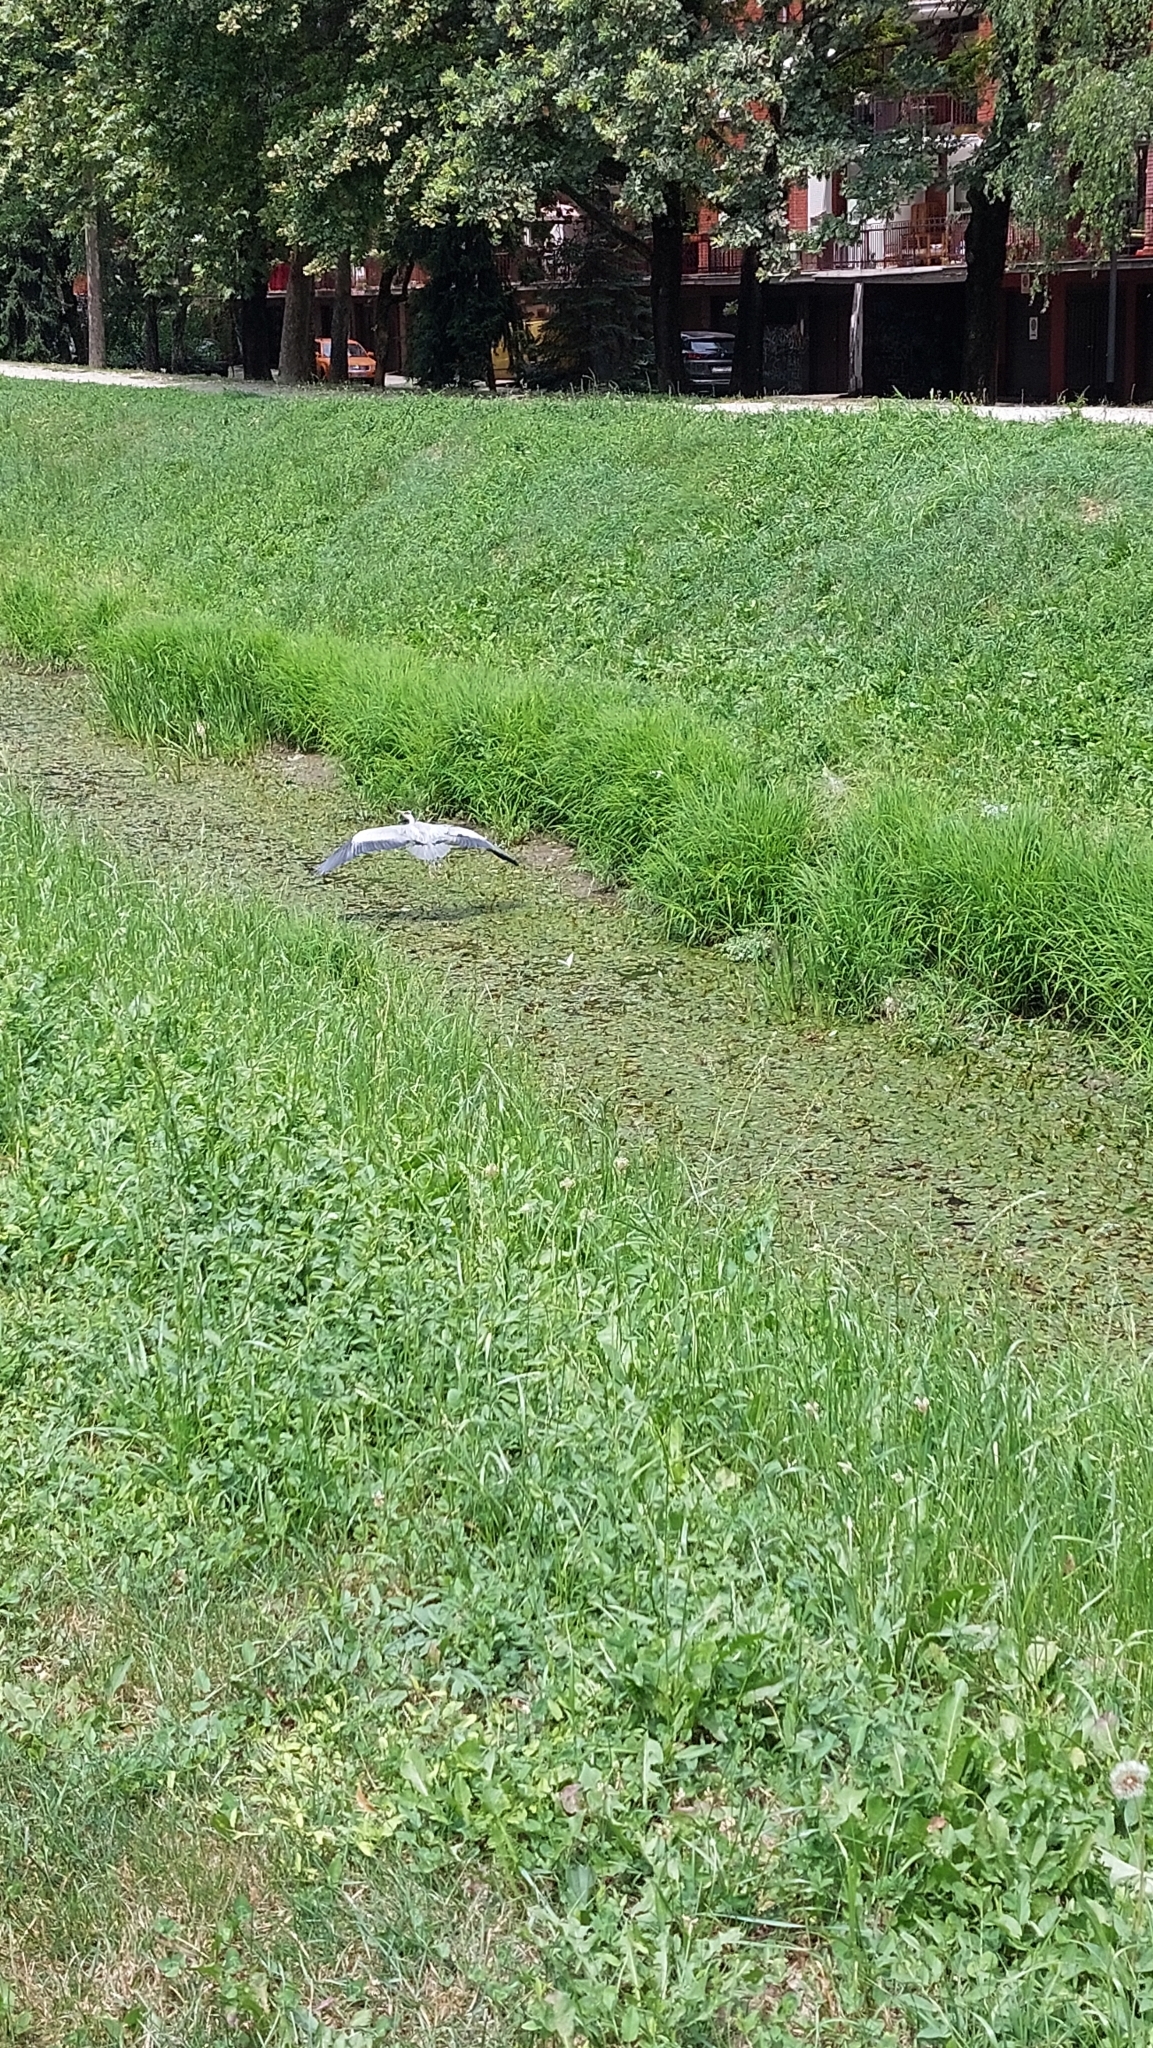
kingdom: Animalia
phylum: Chordata
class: Aves
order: Pelecaniformes
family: Ardeidae
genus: Ardea
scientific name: Ardea cinerea
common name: Grey heron
